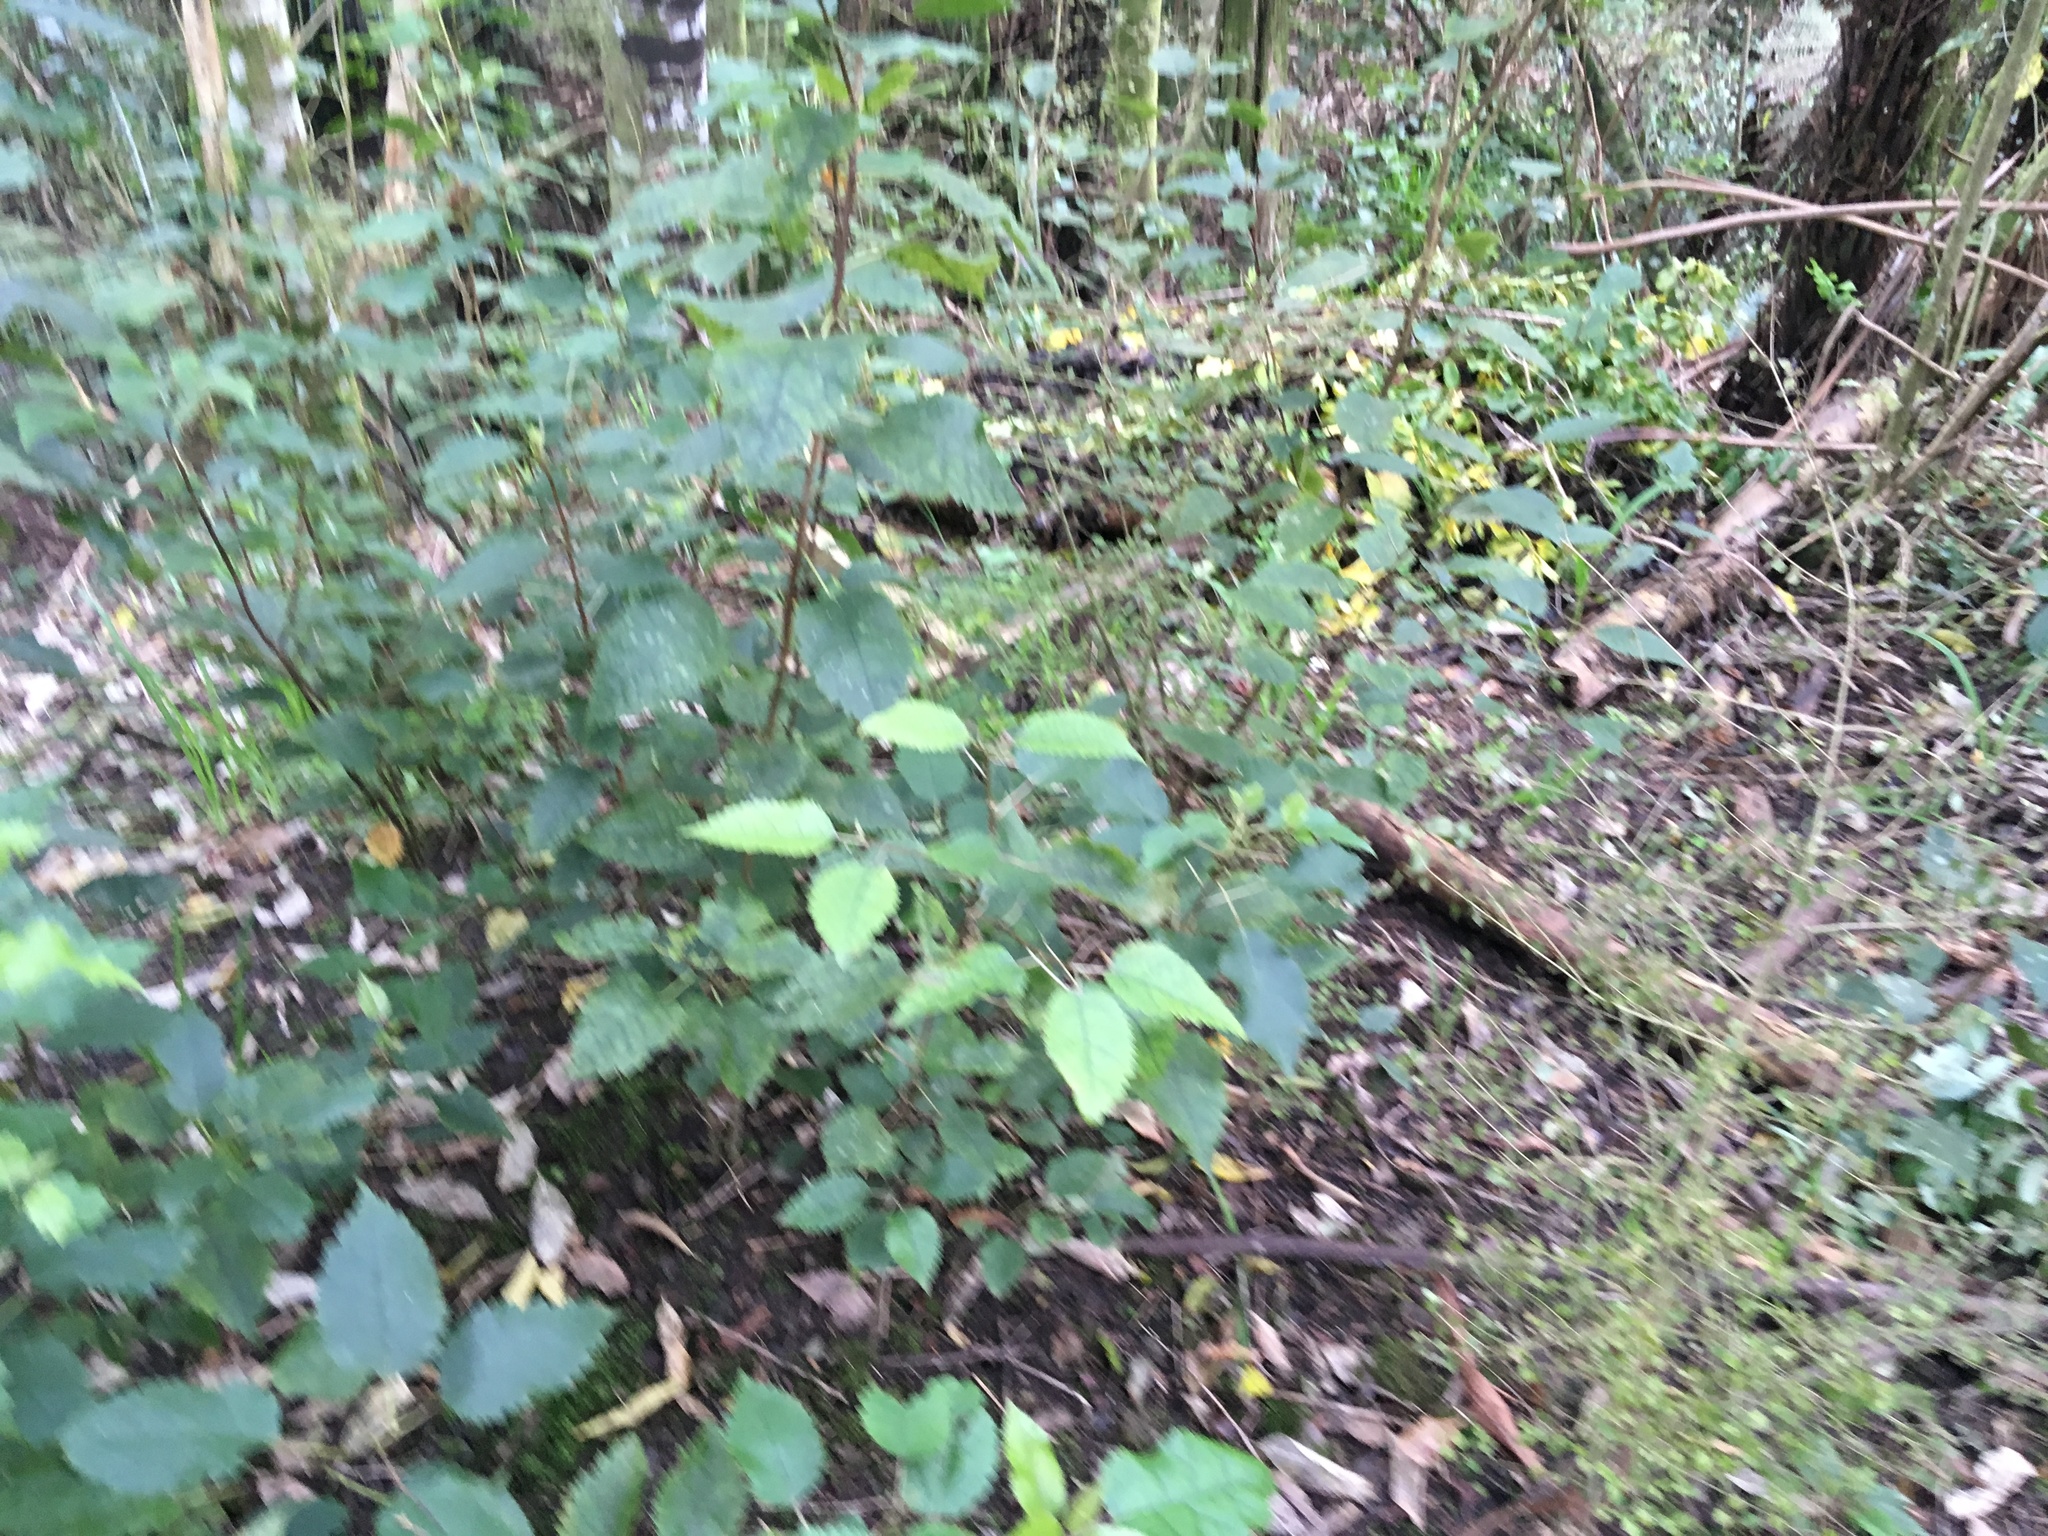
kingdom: Plantae
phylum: Tracheophyta
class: Magnoliopsida
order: Malvales
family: Malvaceae
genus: Hoheria
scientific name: Hoheria populnea
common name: Lacebark
